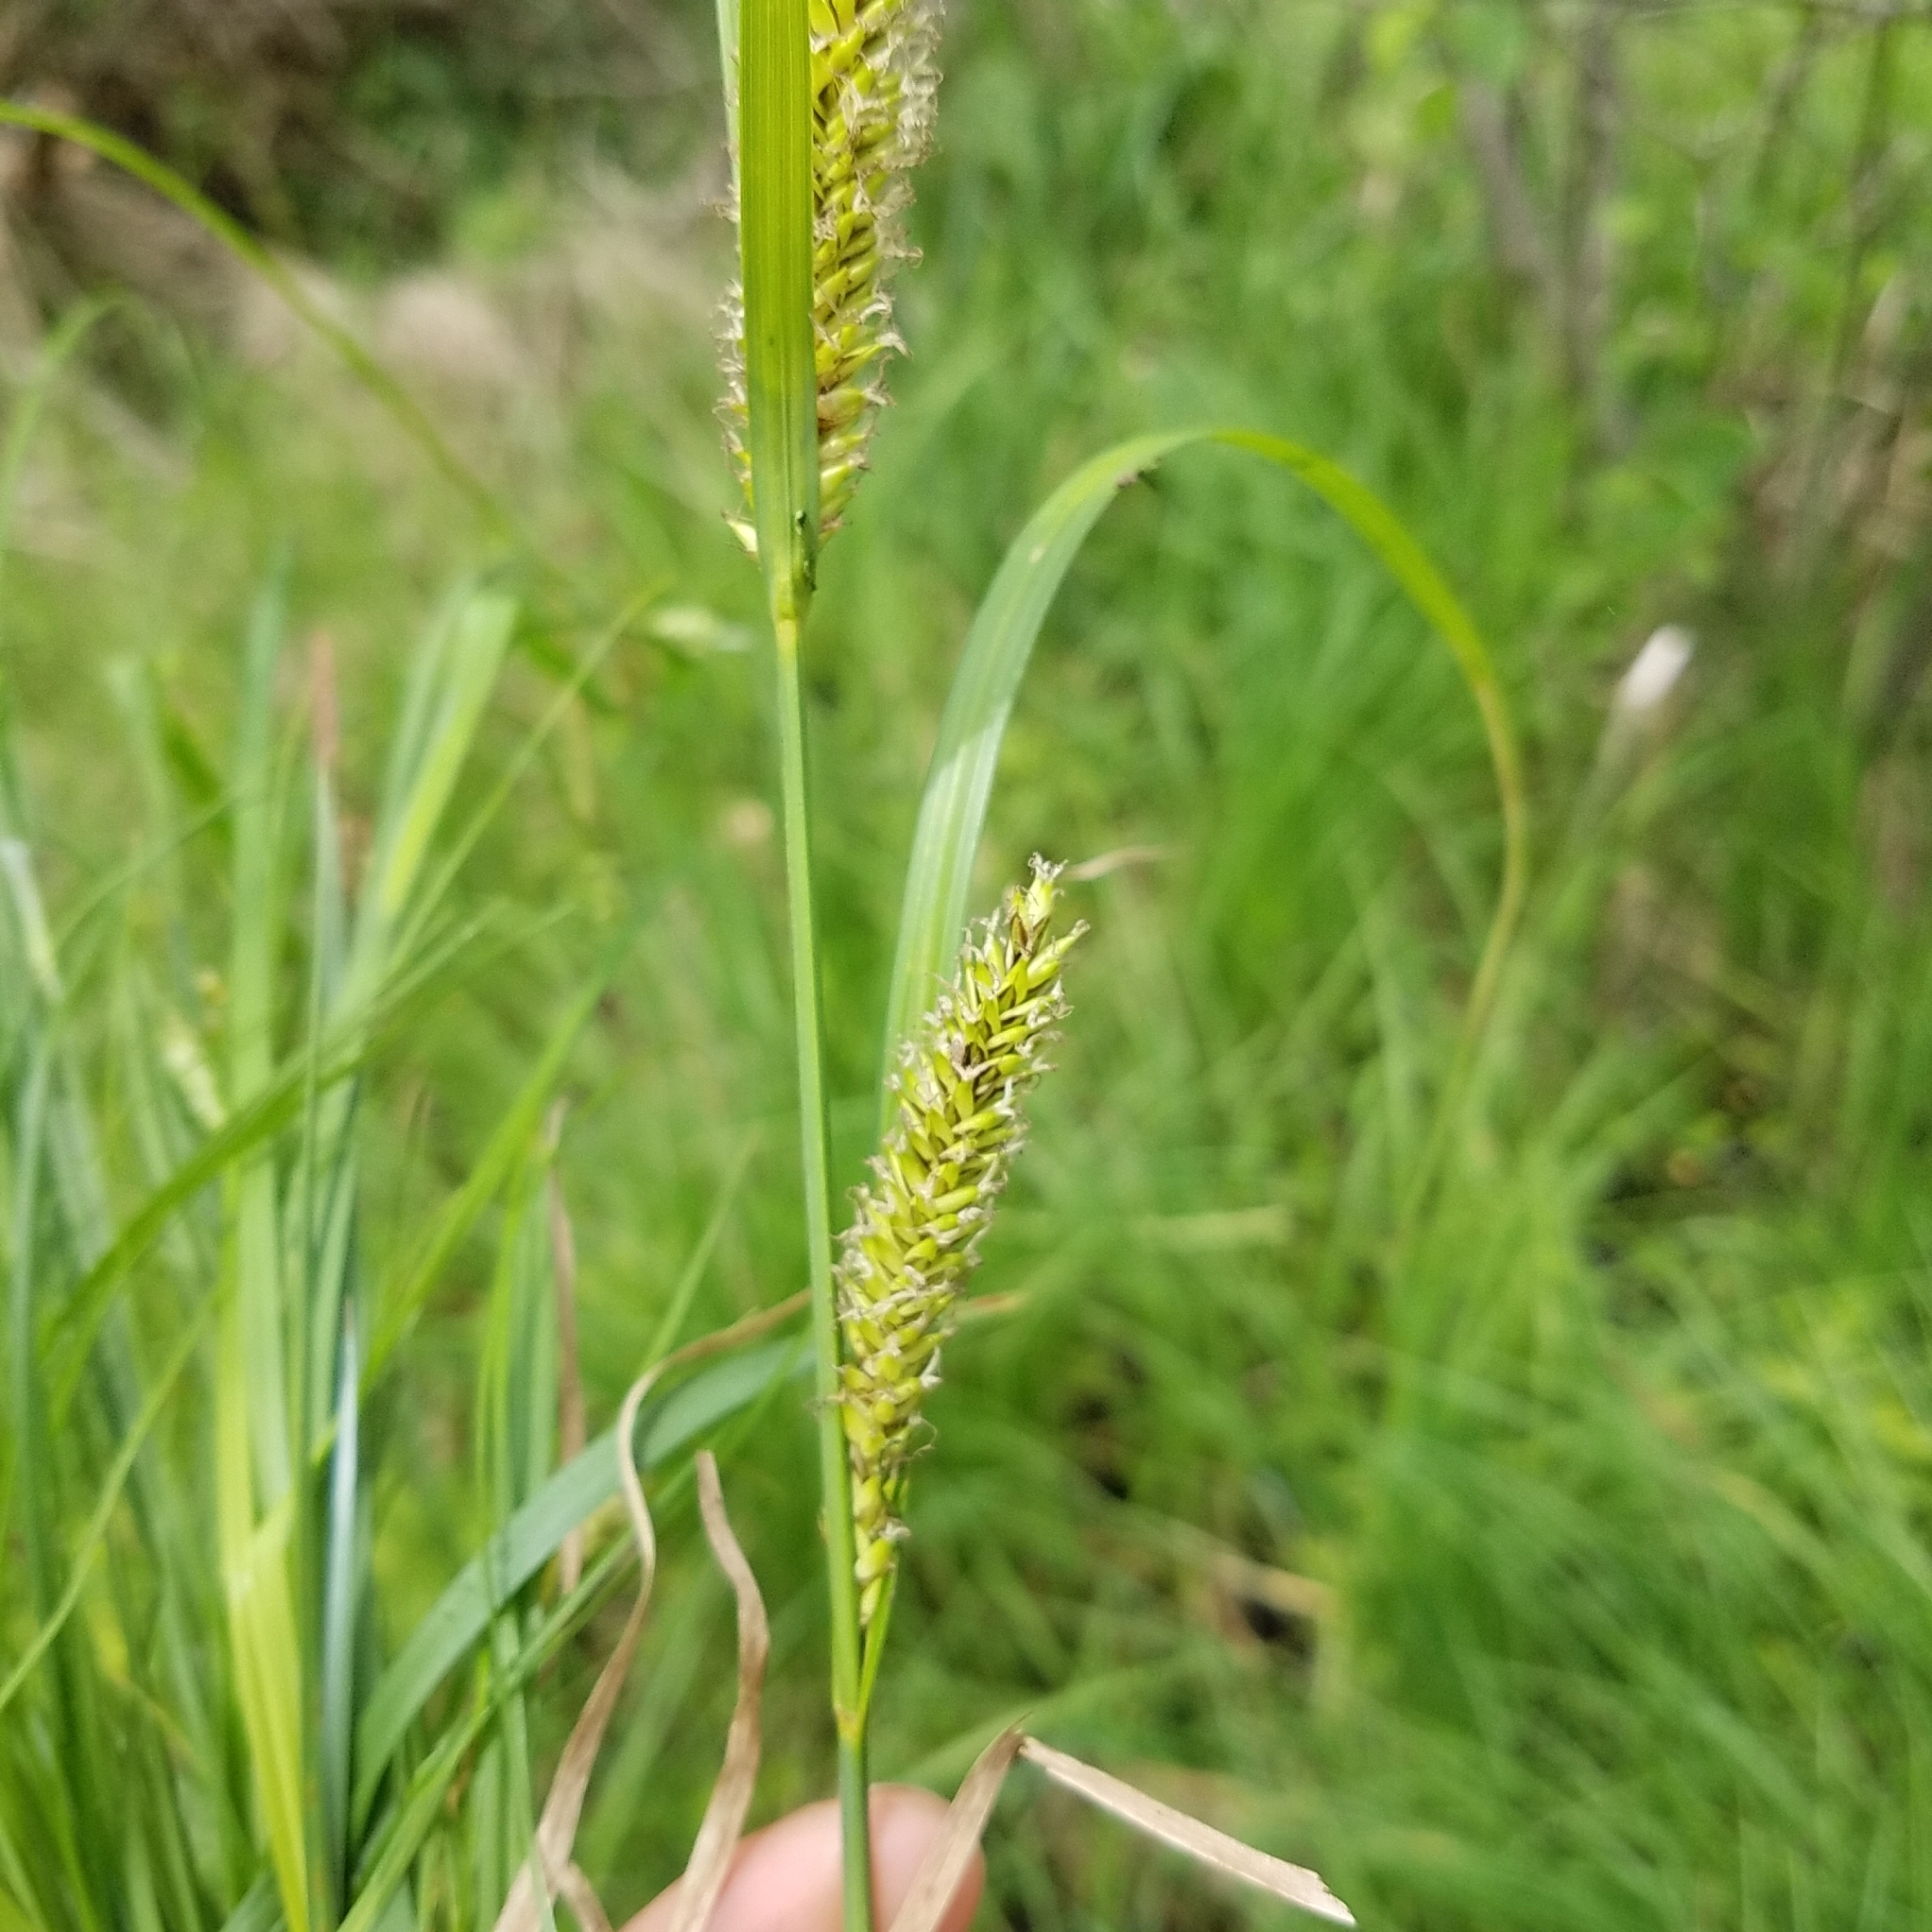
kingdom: Plantae
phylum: Tracheophyta
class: Liliopsida
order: Poales
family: Cyperaceae
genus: Carex
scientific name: Carex lacustris
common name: Common lake sedge
